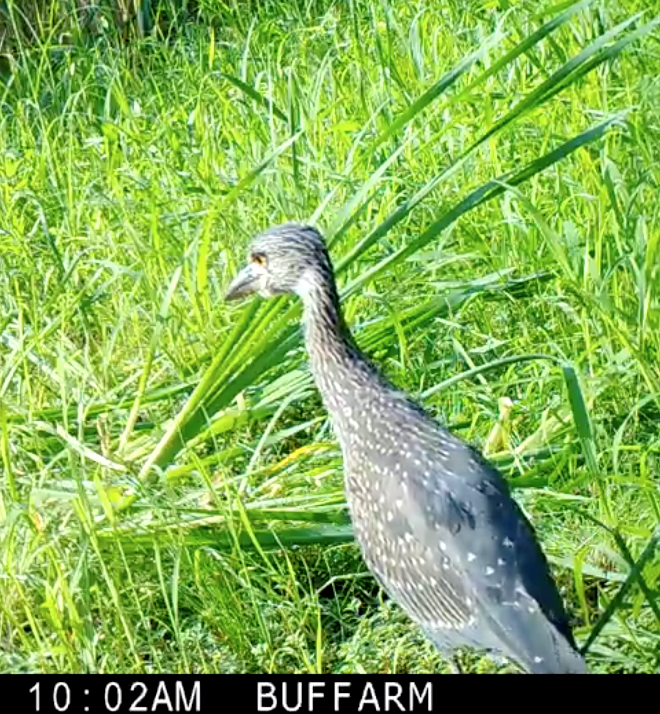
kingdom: Animalia
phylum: Chordata
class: Aves
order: Pelecaniformes
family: Ardeidae
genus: Nyctanassa
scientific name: Nyctanassa violacea
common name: Yellow-crowned night heron
